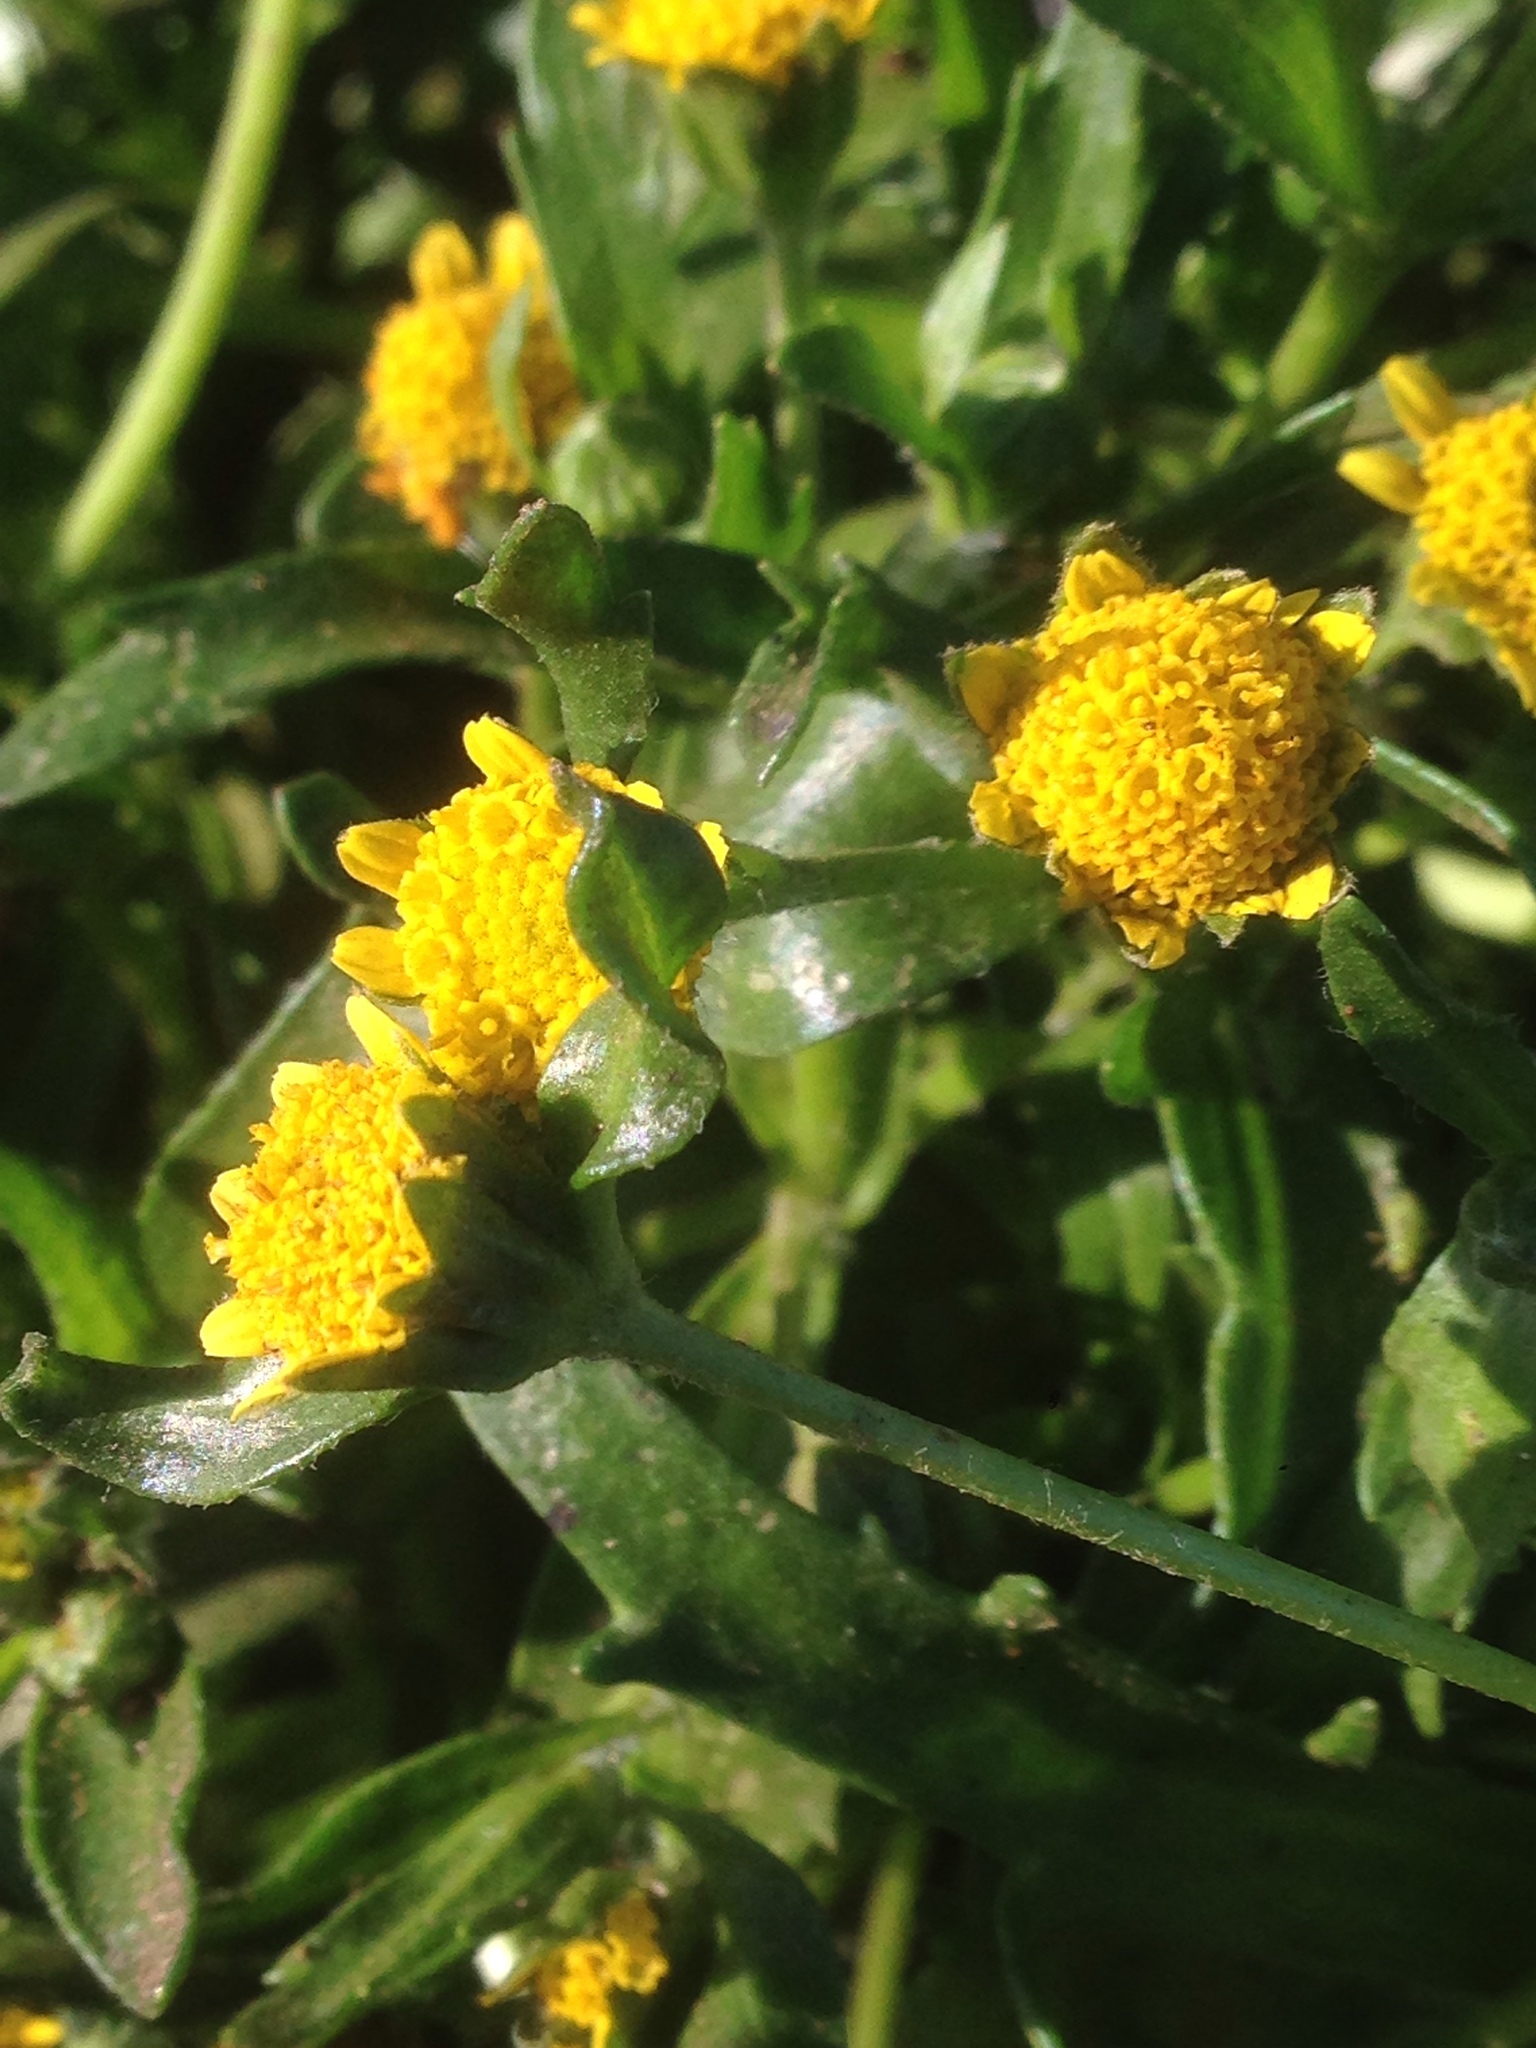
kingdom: Plantae
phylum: Tracheophyta
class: Magnoliopsida
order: Asterales
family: Asteraceae
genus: Lasthenia
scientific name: Lasthenia maritima
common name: Hairy goldfields
